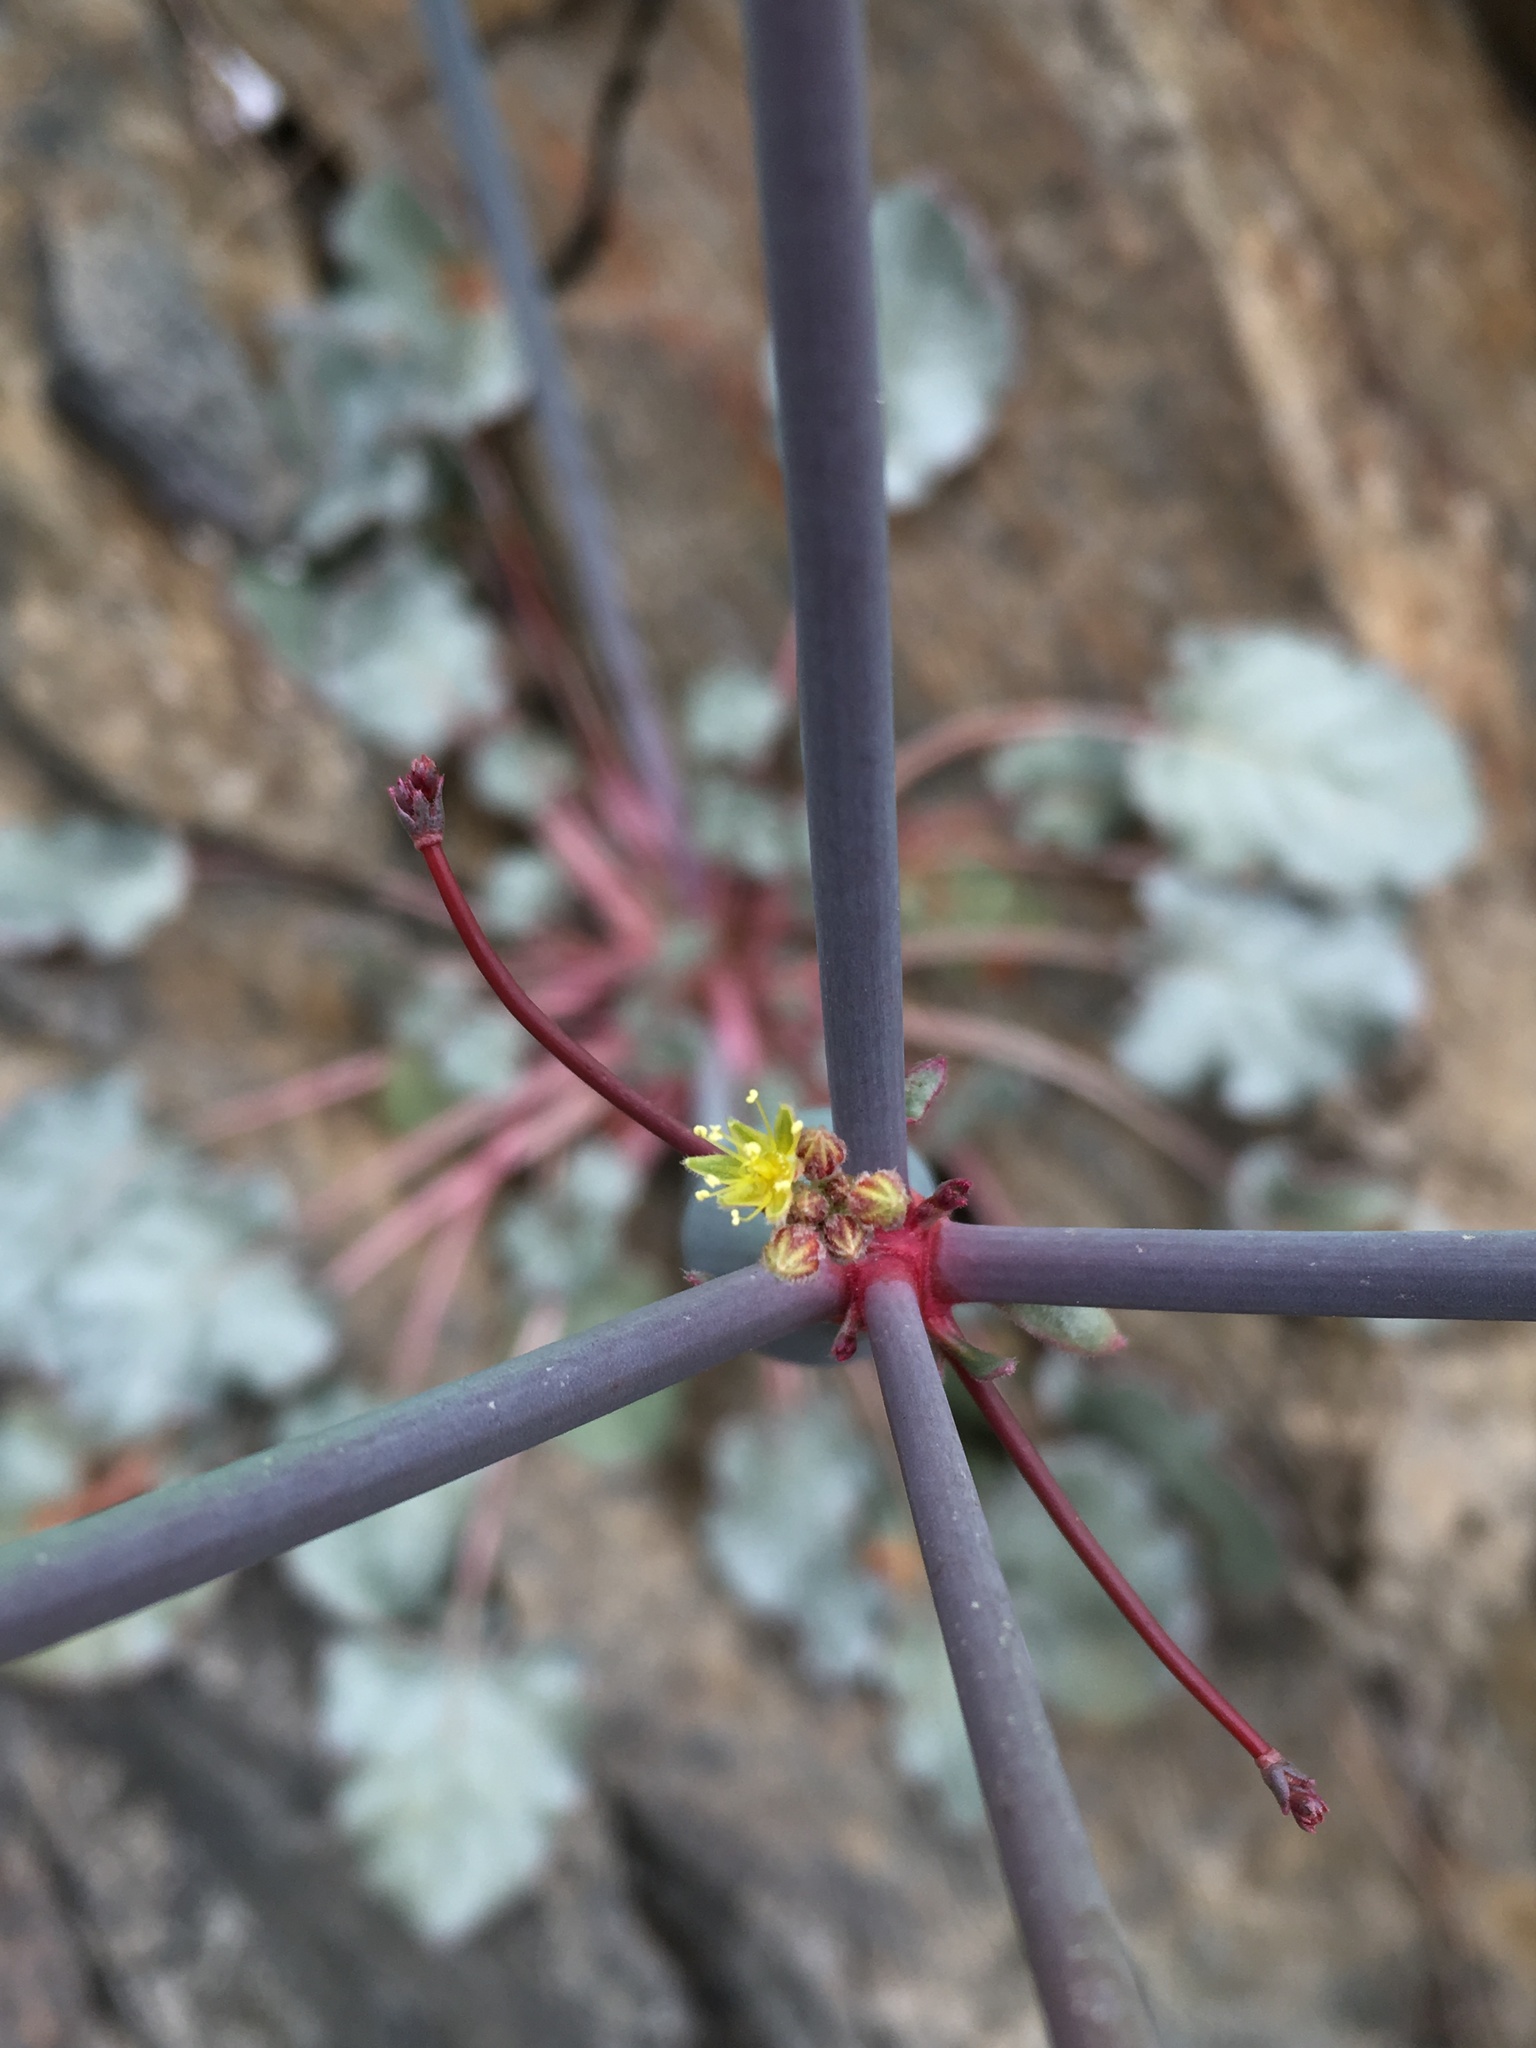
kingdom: Plantae
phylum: Tracheophyta
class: Magnoliopsida
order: Caryophyllales
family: Polygonaceae
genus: Eriogonum
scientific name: Eriogonum inflatum
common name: Desert trumpet
